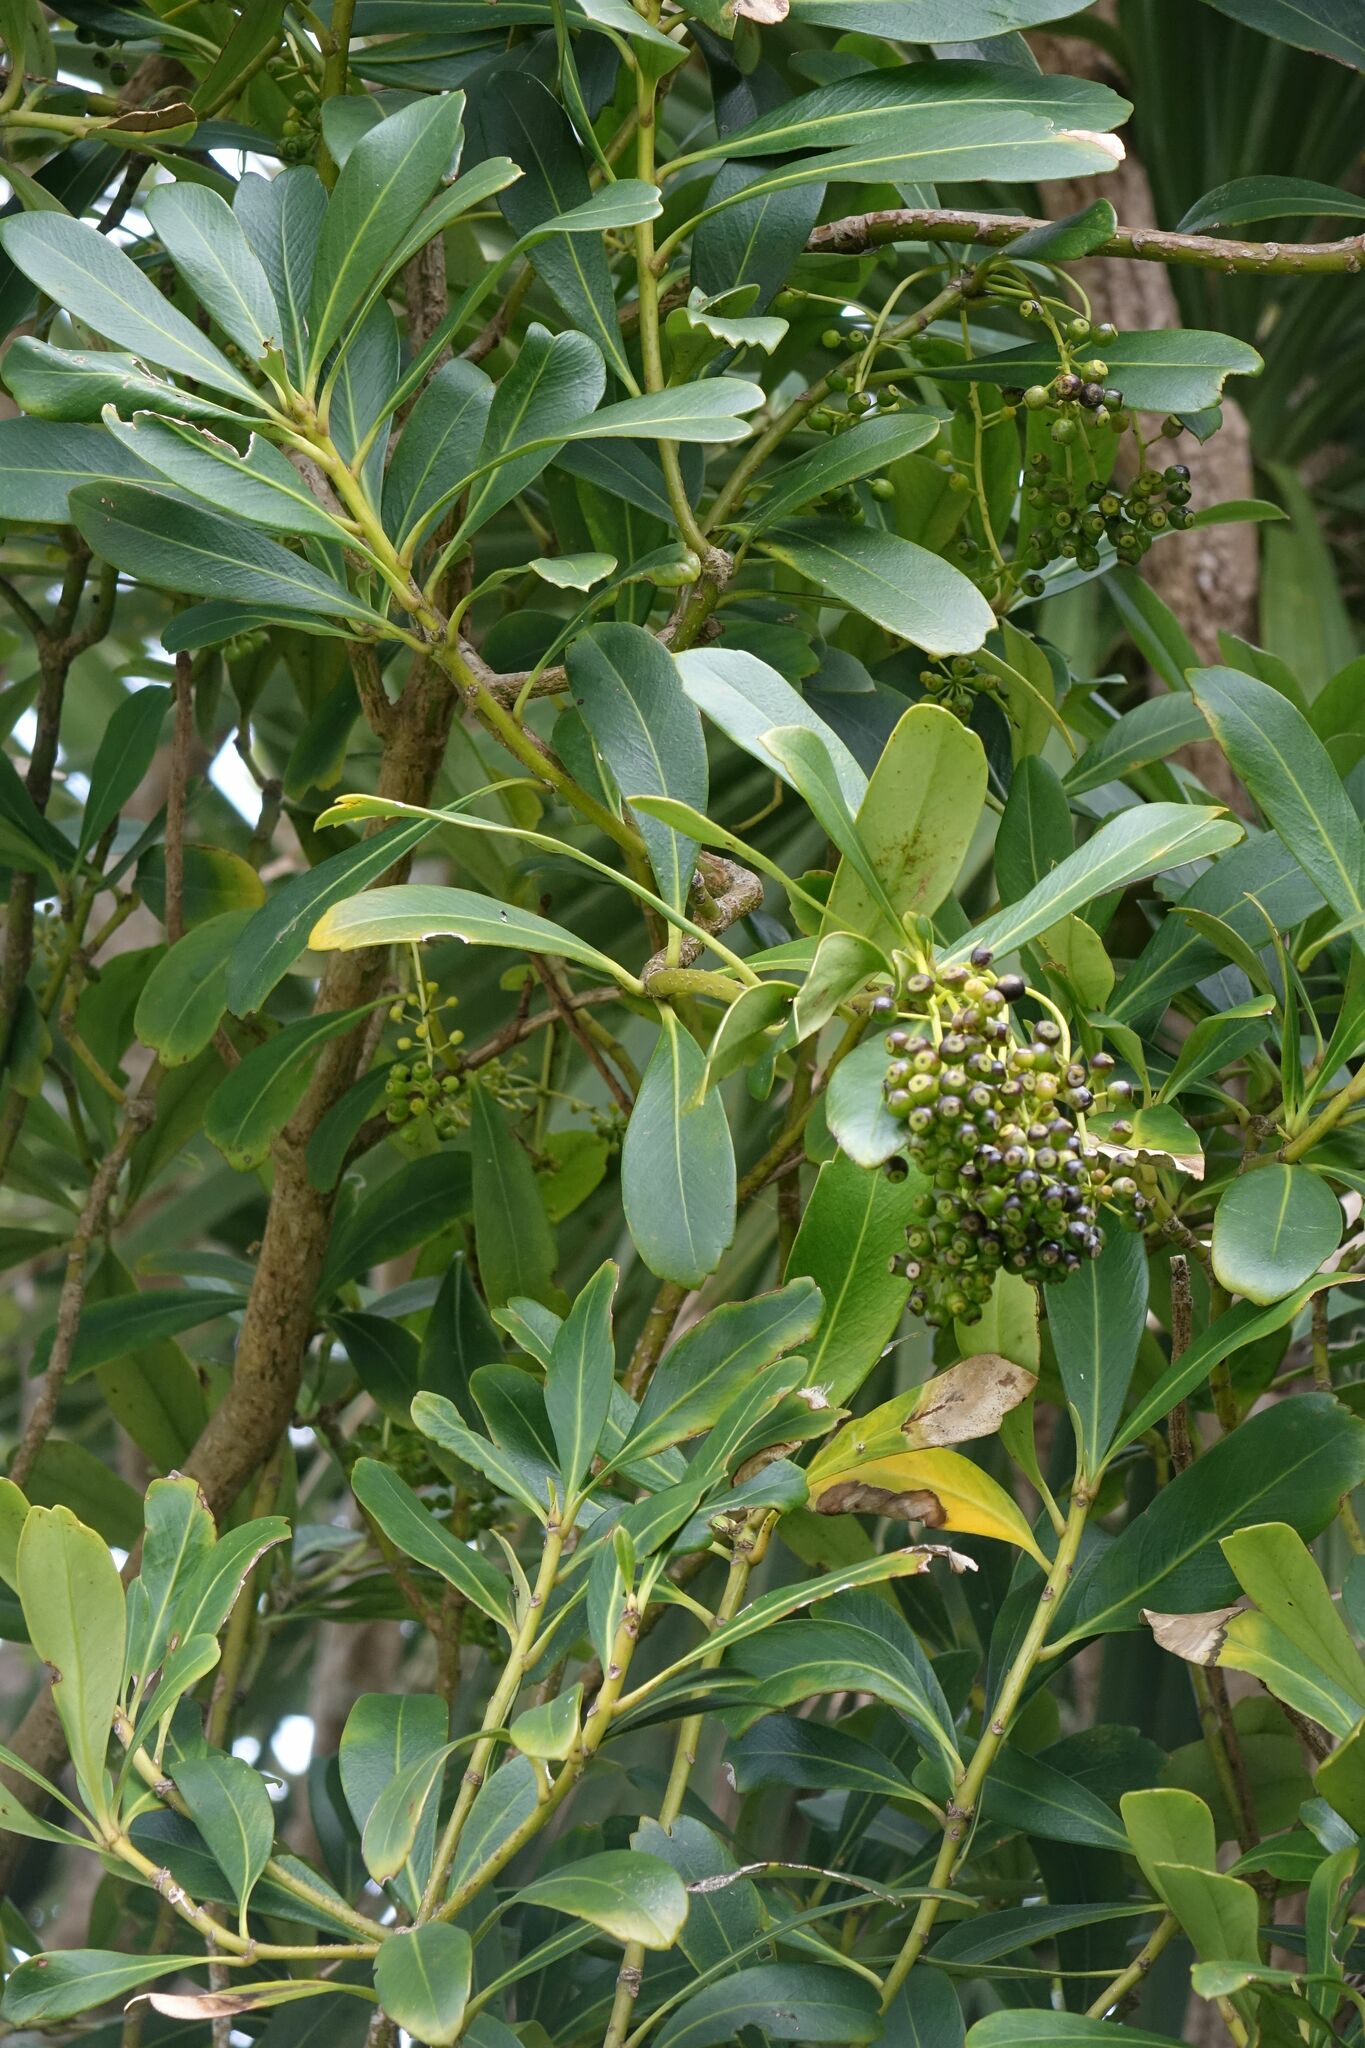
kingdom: Plantae
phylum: Tracheophyta
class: Magnoliopsida
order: Apiales
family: Araliaceae
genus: Pseudopanax
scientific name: Pseudopanax chathamicus
